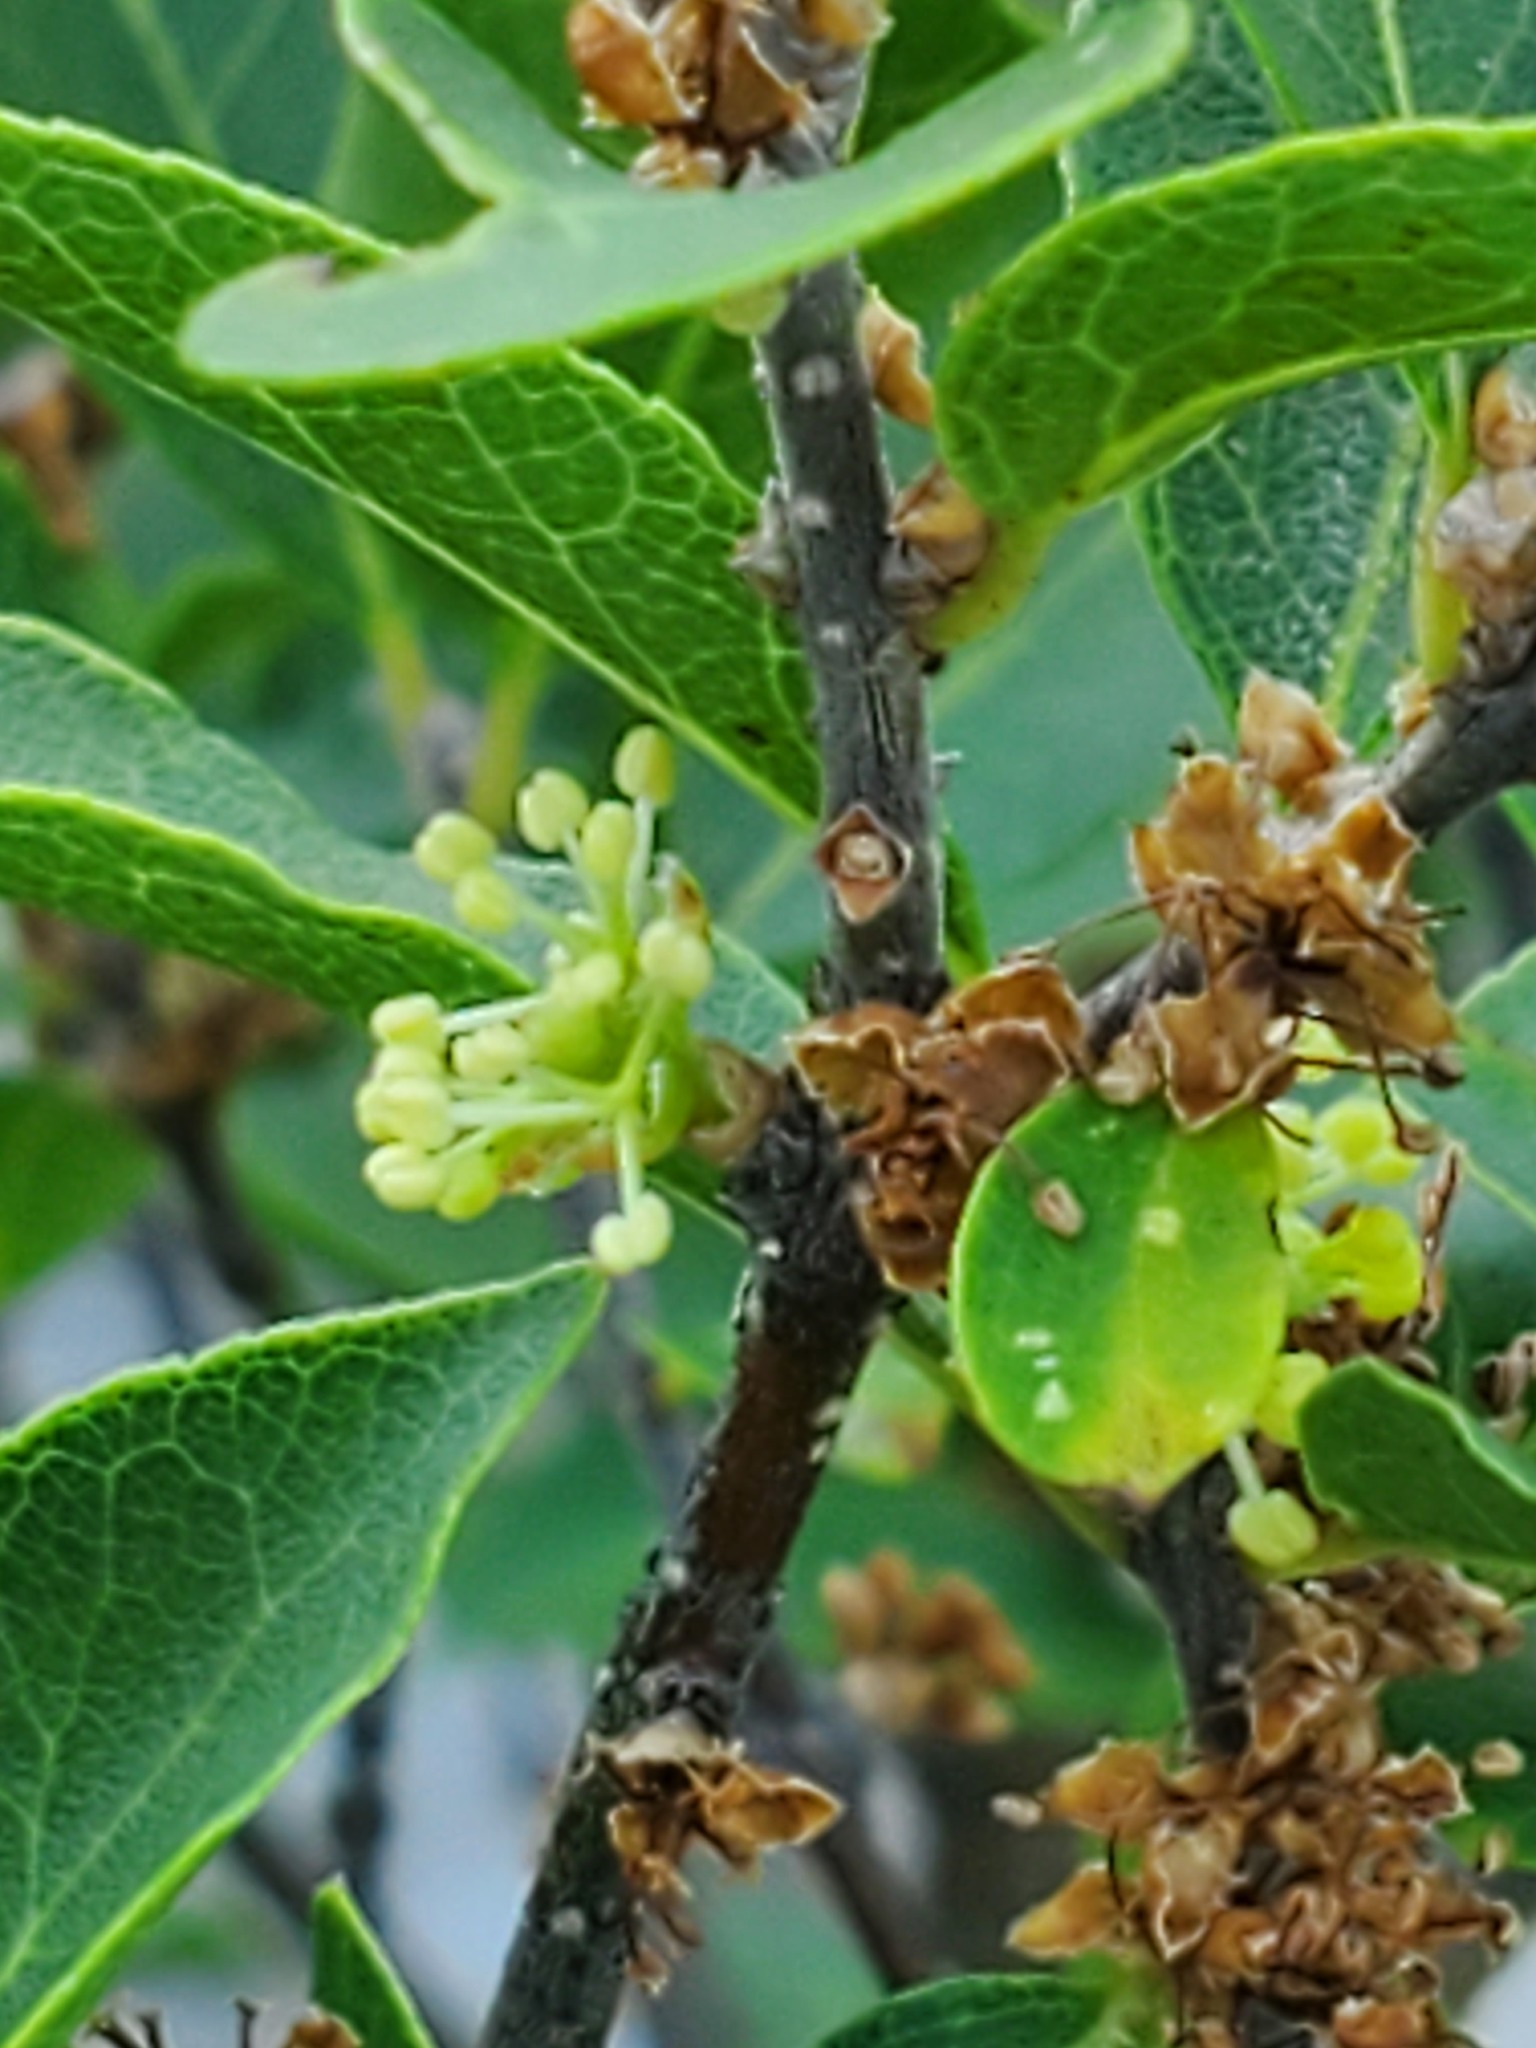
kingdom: Plantae
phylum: Tracheophyta
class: Magnoliopsida
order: Lamiales
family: Oleaceae
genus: Forestiera
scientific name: Forestiera reticulata
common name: Netleaf swamp-privet
